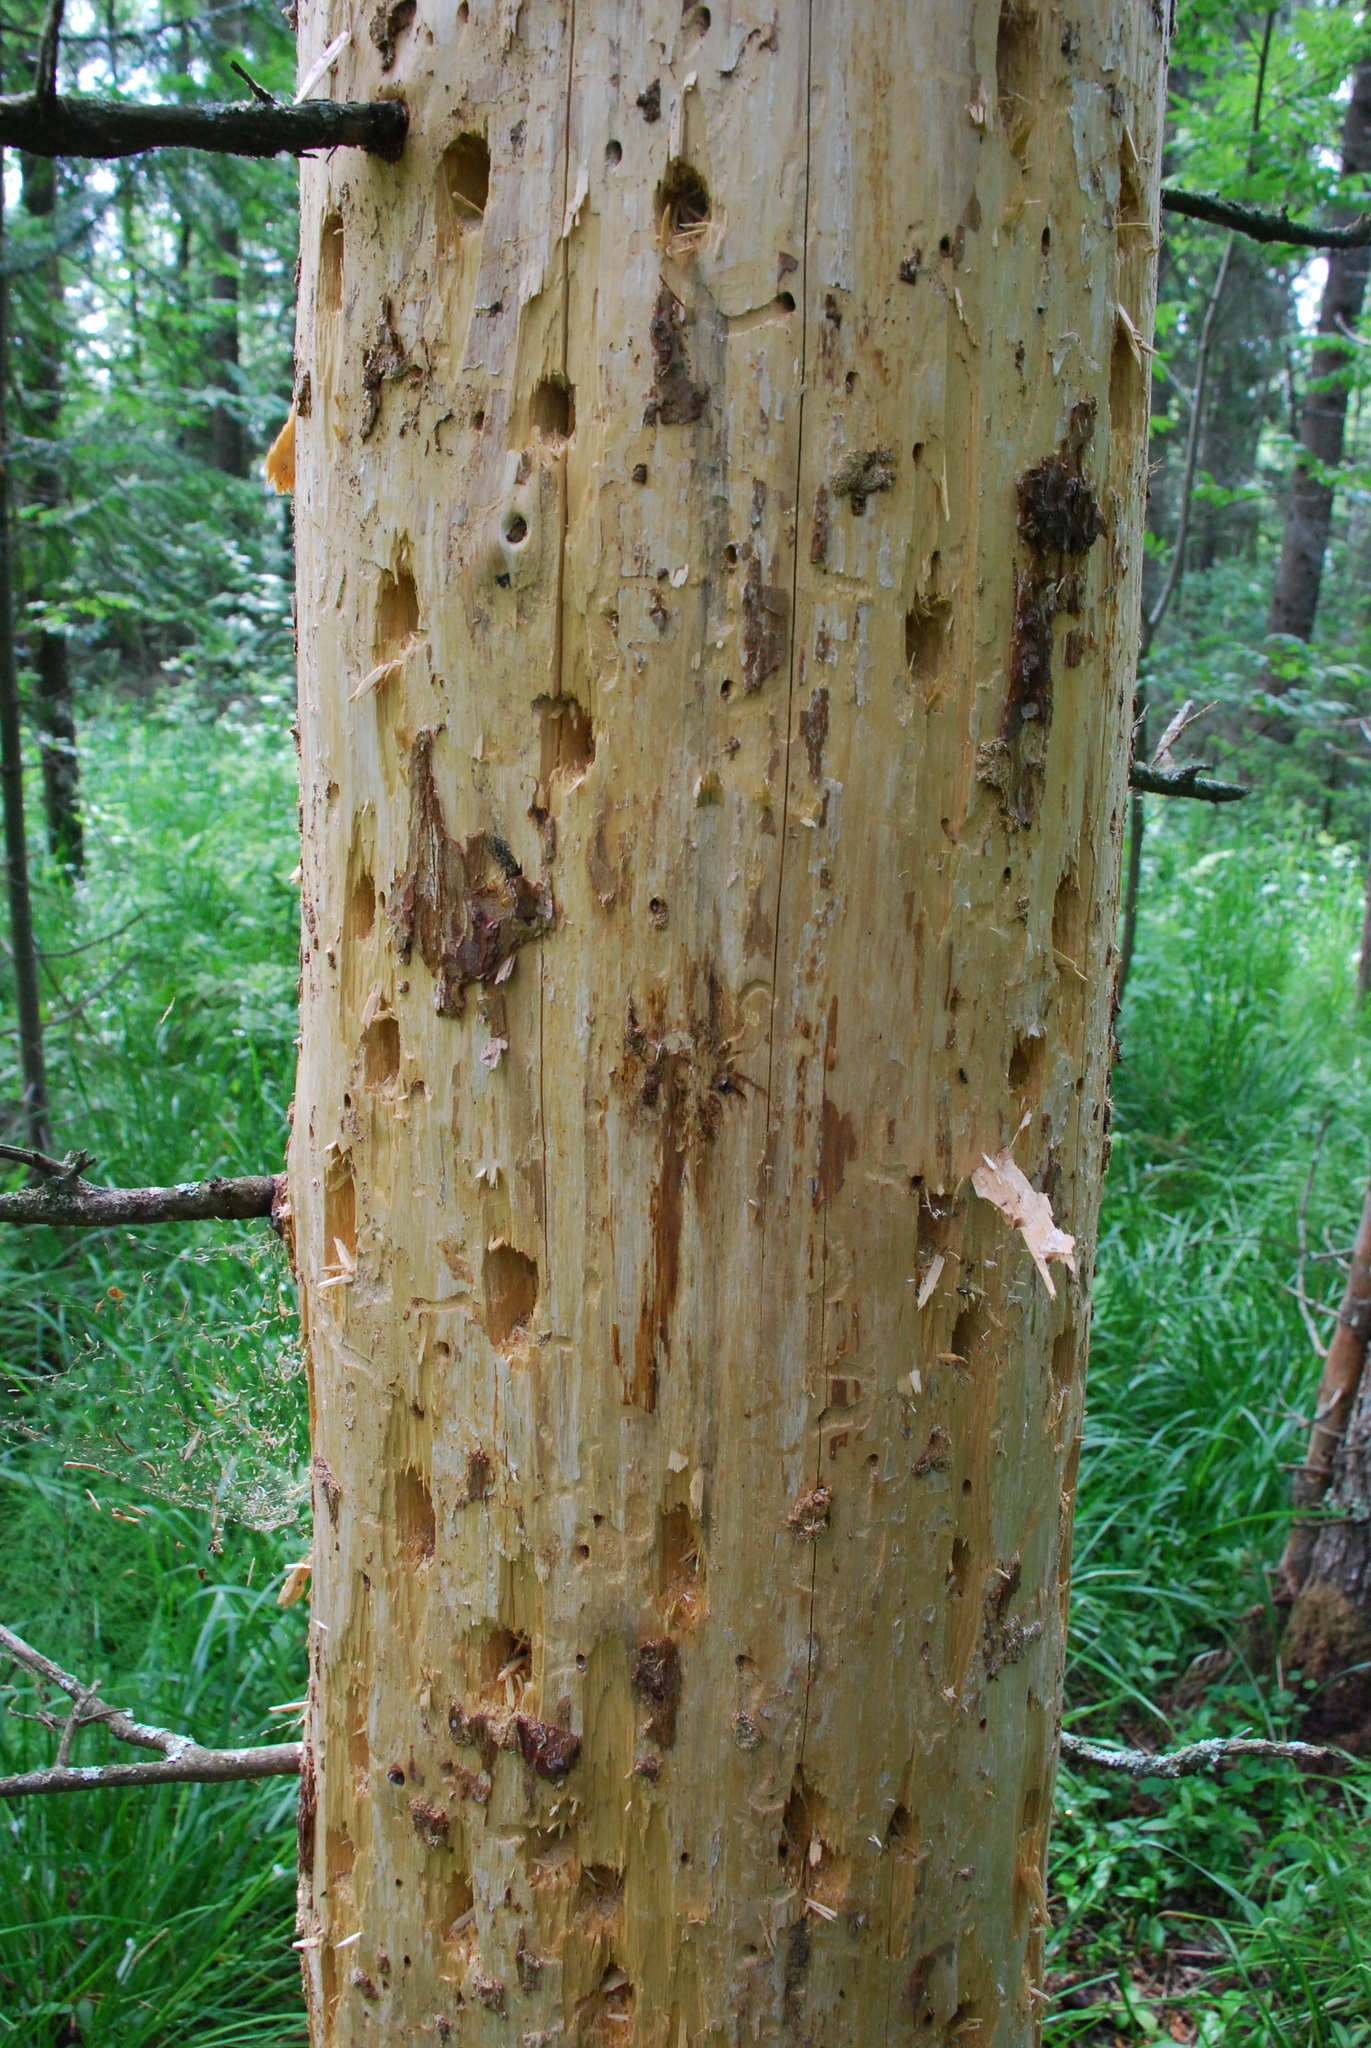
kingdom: Animalia
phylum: Chordata
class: Aves
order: Piciformes
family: Picidae
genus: Dryocopus
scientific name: Dryocopus martius
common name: Black woodpecker
